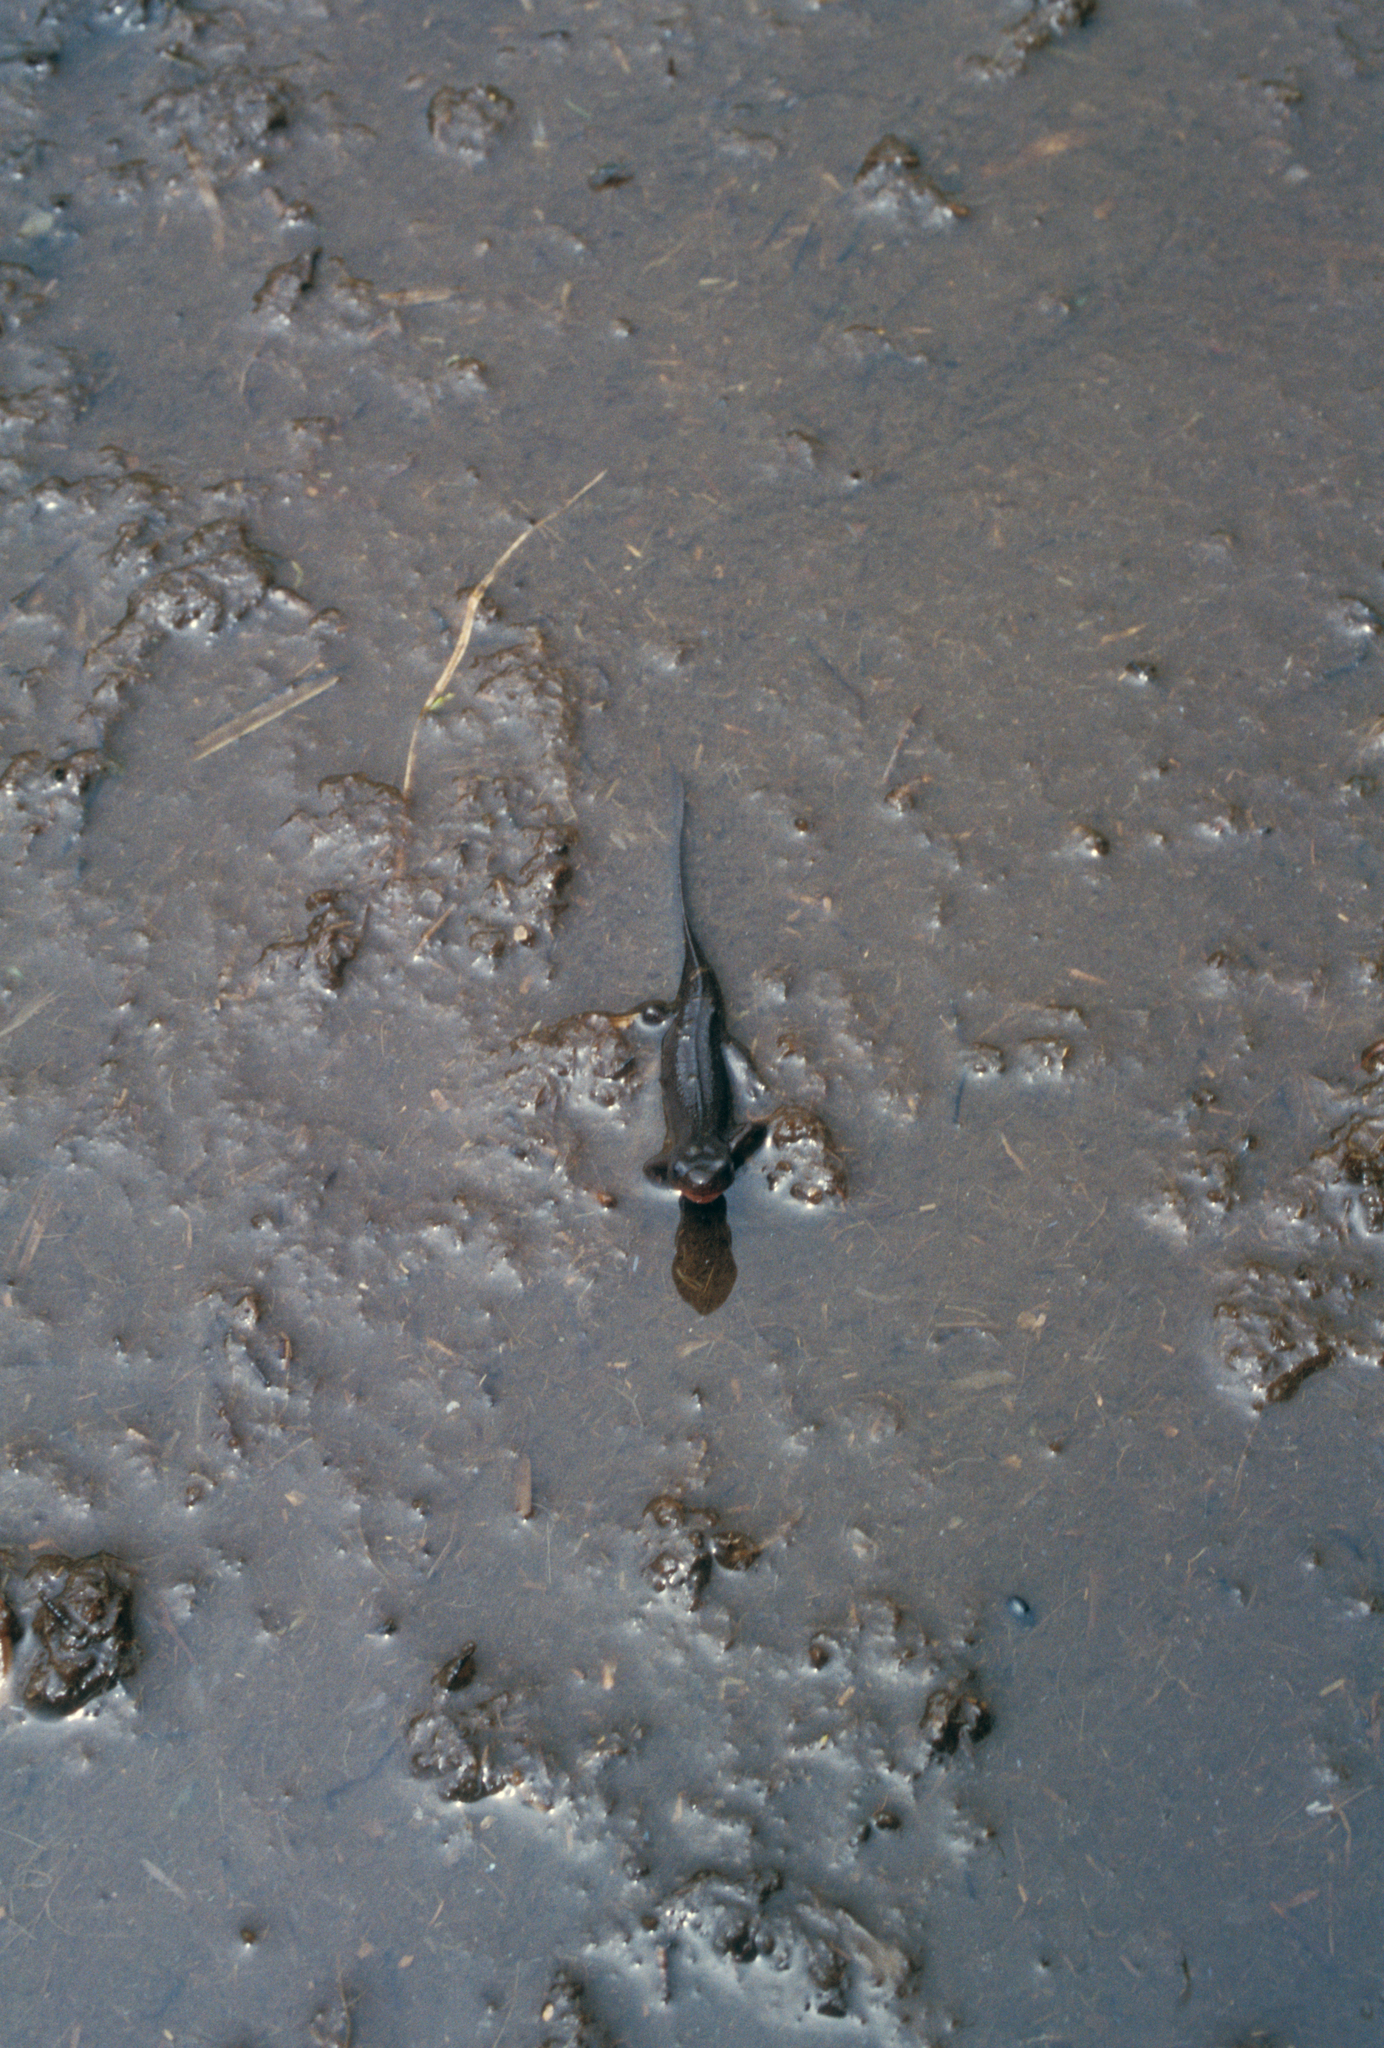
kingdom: Animalia
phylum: Chordata
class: Amphibia
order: Caudata
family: Salamandridae
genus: Cynops
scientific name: Cynops pyrrhogaster
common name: Japanese fire-bellied newt
